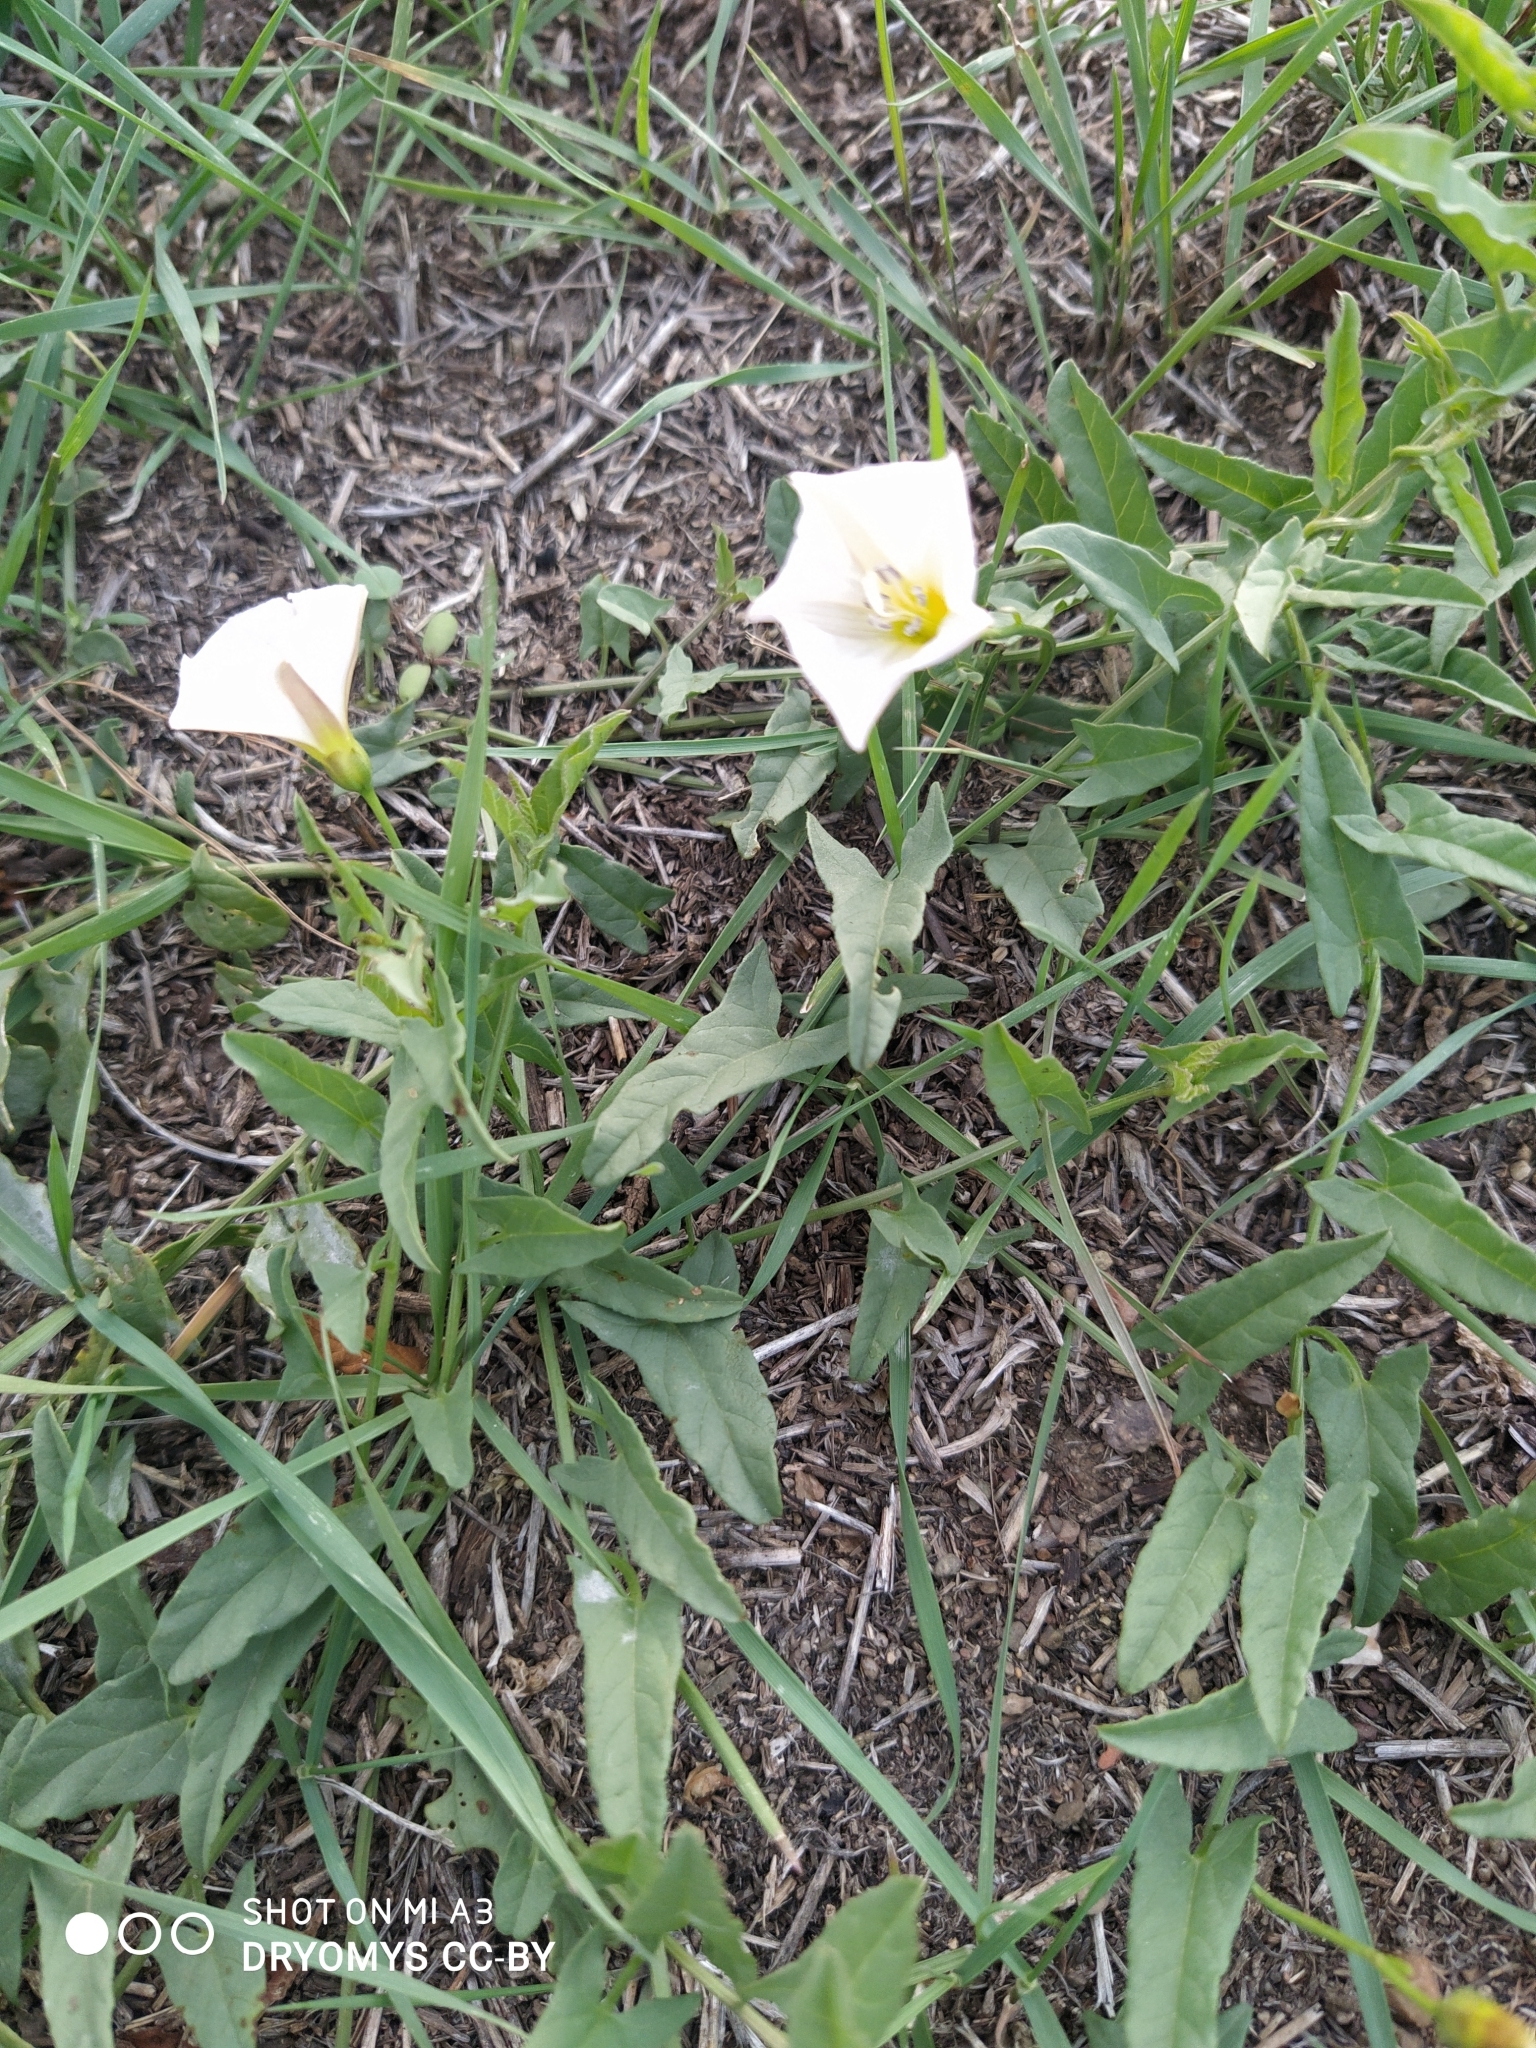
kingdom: Plantae
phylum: Tracheophyta
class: Magnoliopsida
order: Solanales
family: Convolvulaceae
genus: Convolvulus
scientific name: Convolvulus arvensis
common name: Field bindweed
